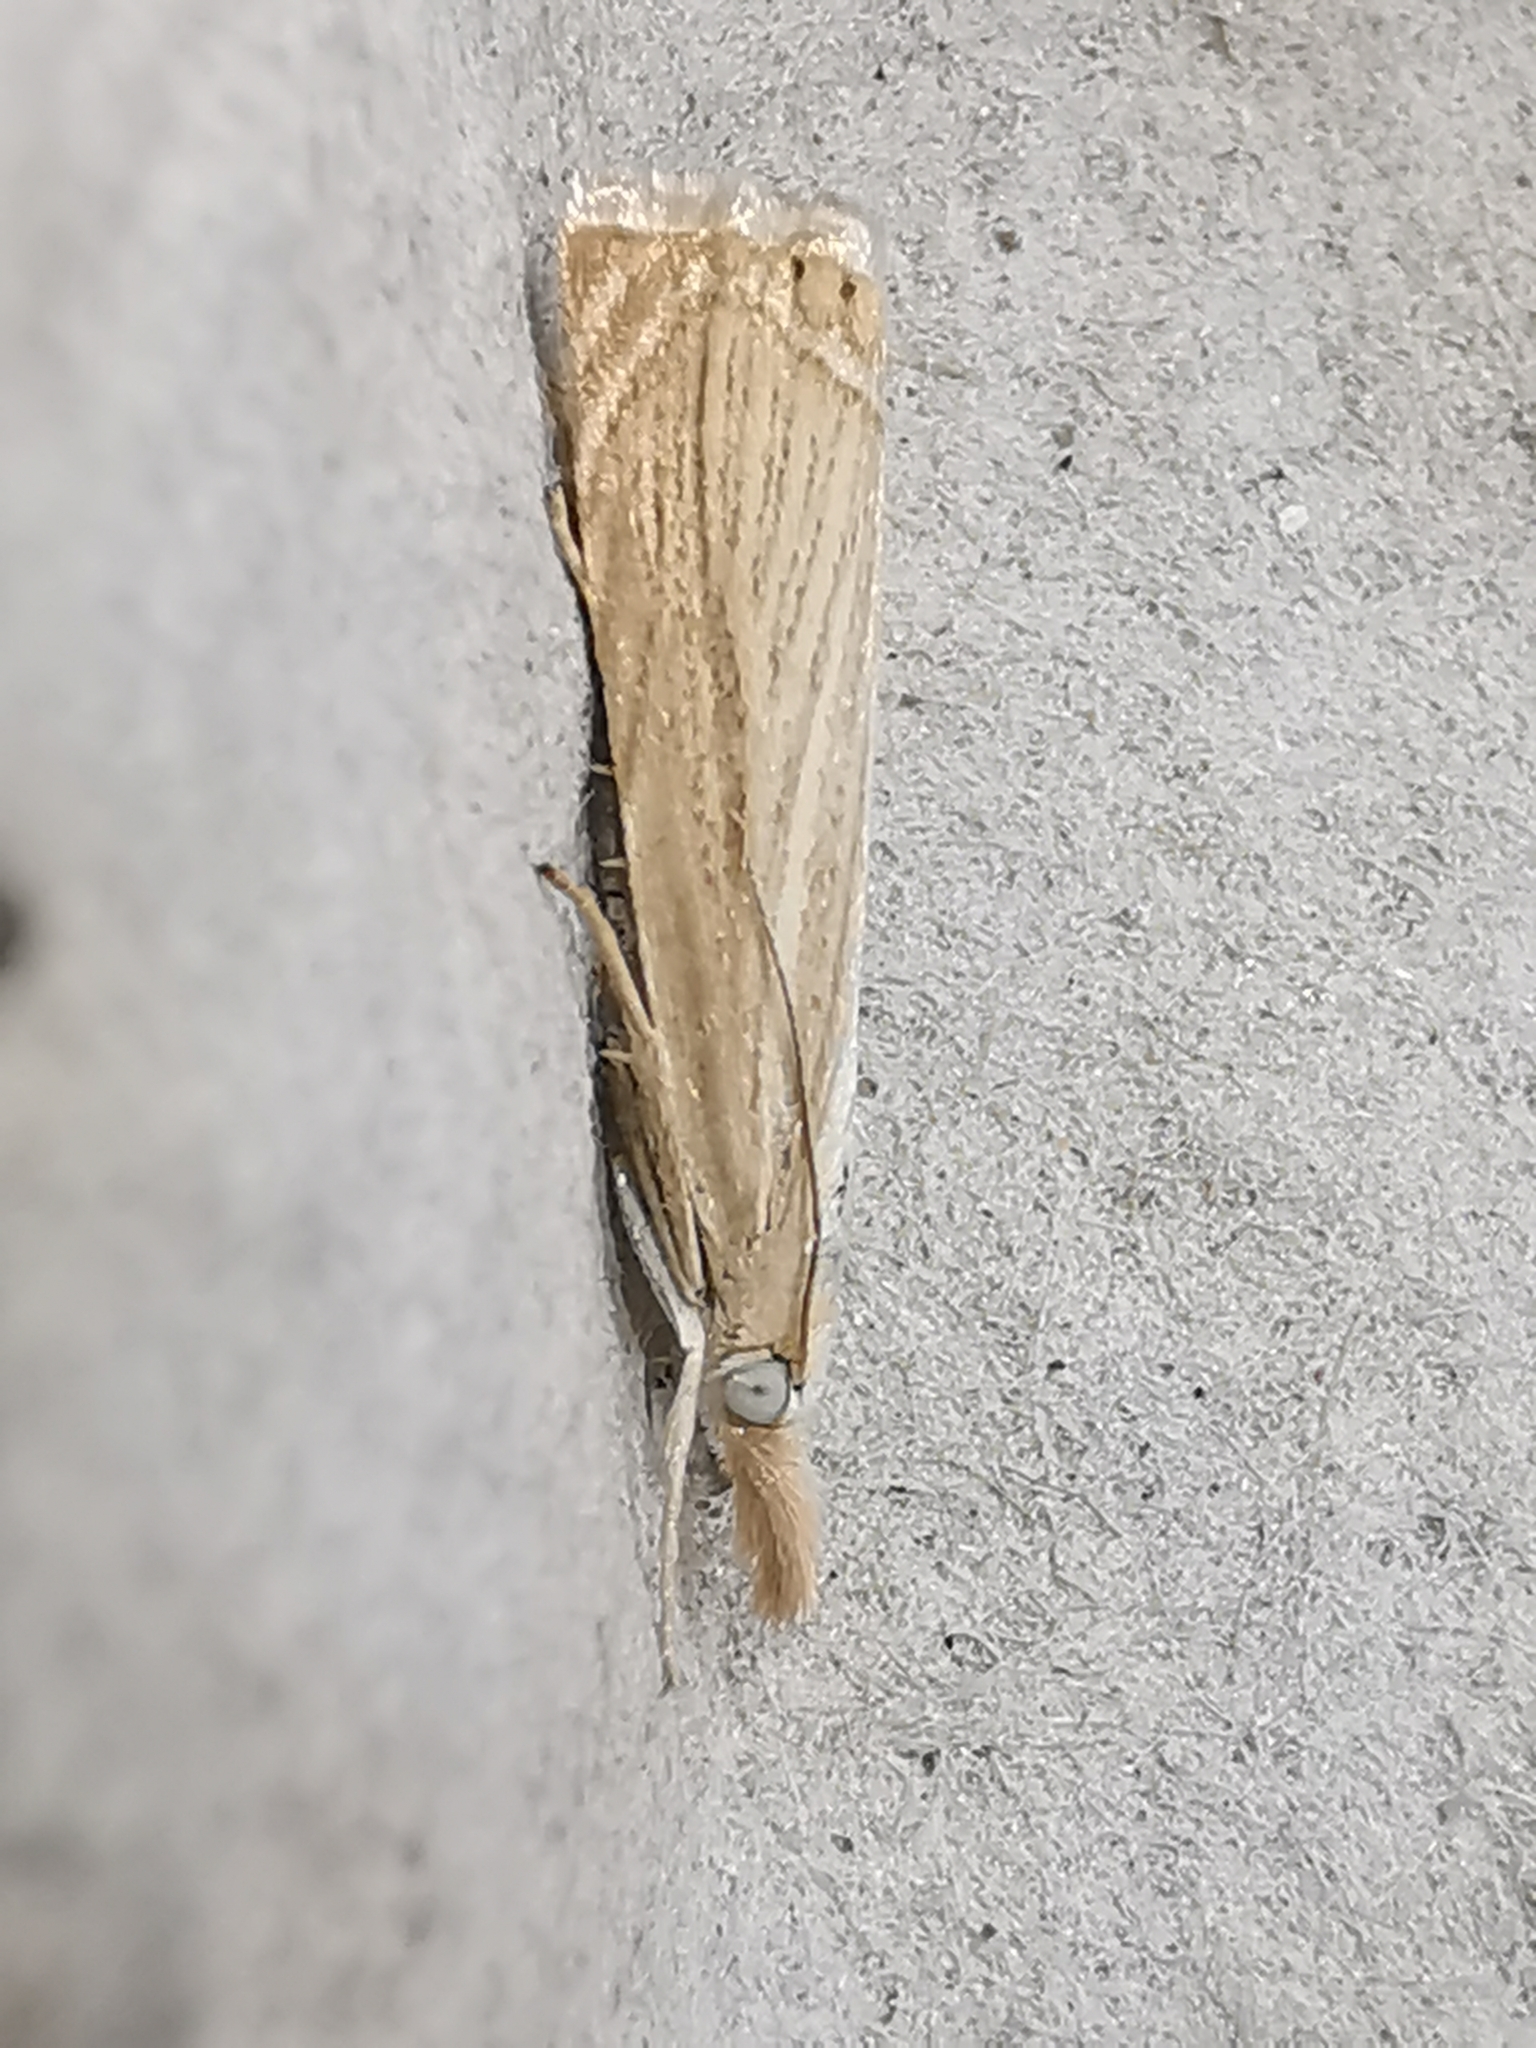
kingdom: Animalia
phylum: Arthropoda
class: Insecta
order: Lepidoptera
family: Crambidae
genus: Chrysoteuchia
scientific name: Chrysoteuchia culmella
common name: Garden grass-veneer
